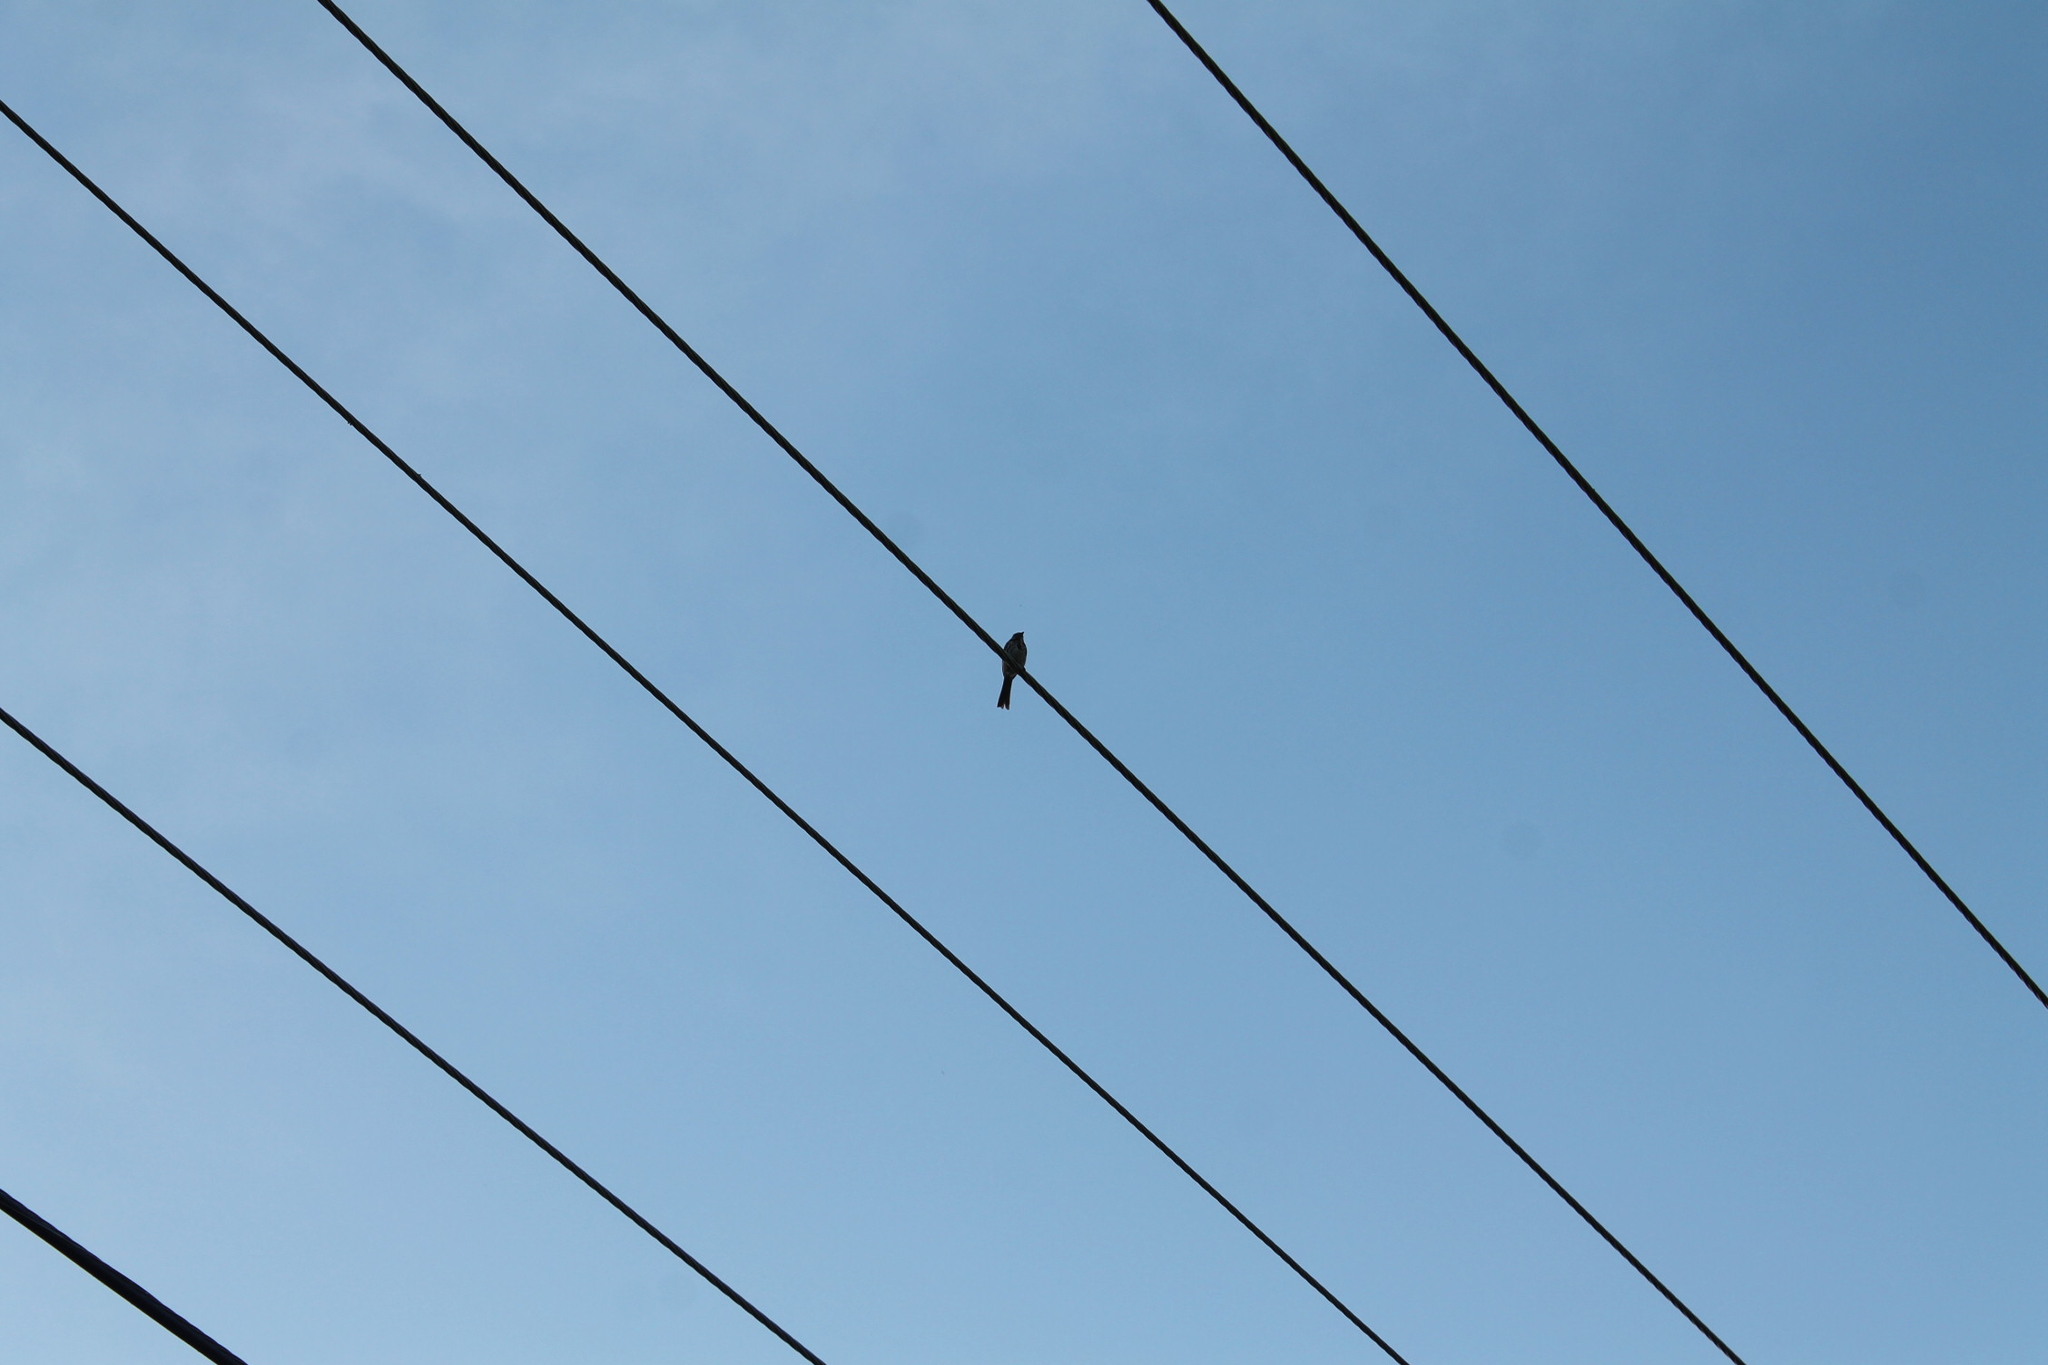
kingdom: Animalia
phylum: Chordata
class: Aves
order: Passeriformes
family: Passerellidae
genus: Melospiza
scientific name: Melospiza melodia
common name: Song sparrow
